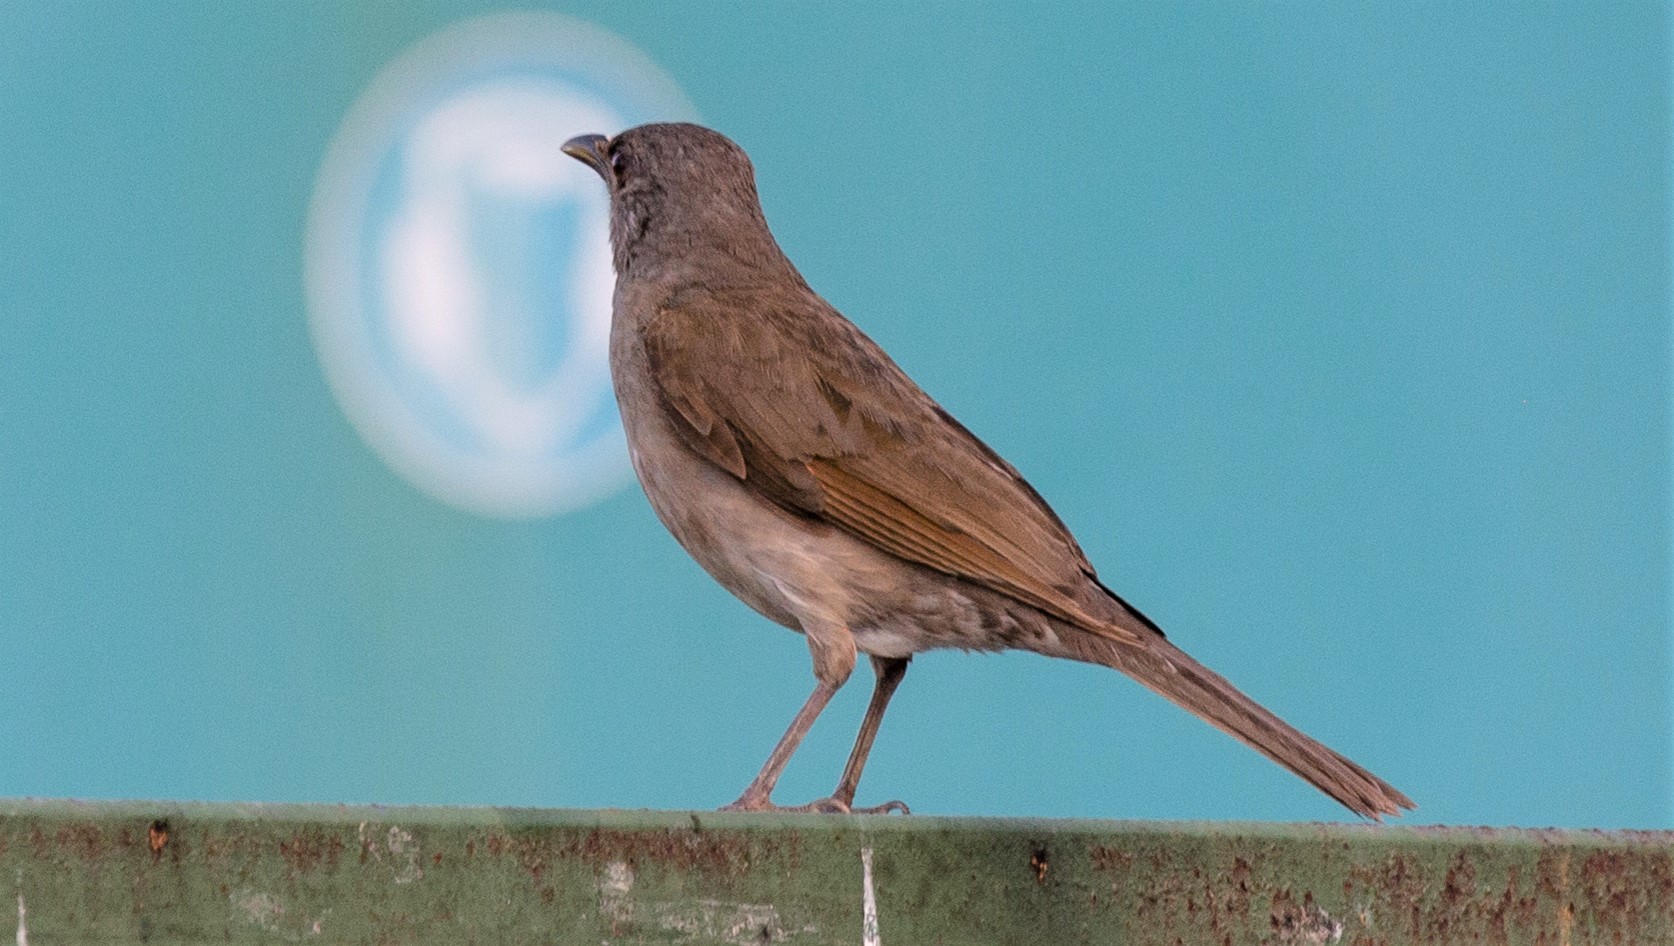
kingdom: Animalia
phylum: Chordata
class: Aves
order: Passeriformes
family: Turdidae
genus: Turdus
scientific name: Turdus leucomelas
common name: Pale-breasted thrush
